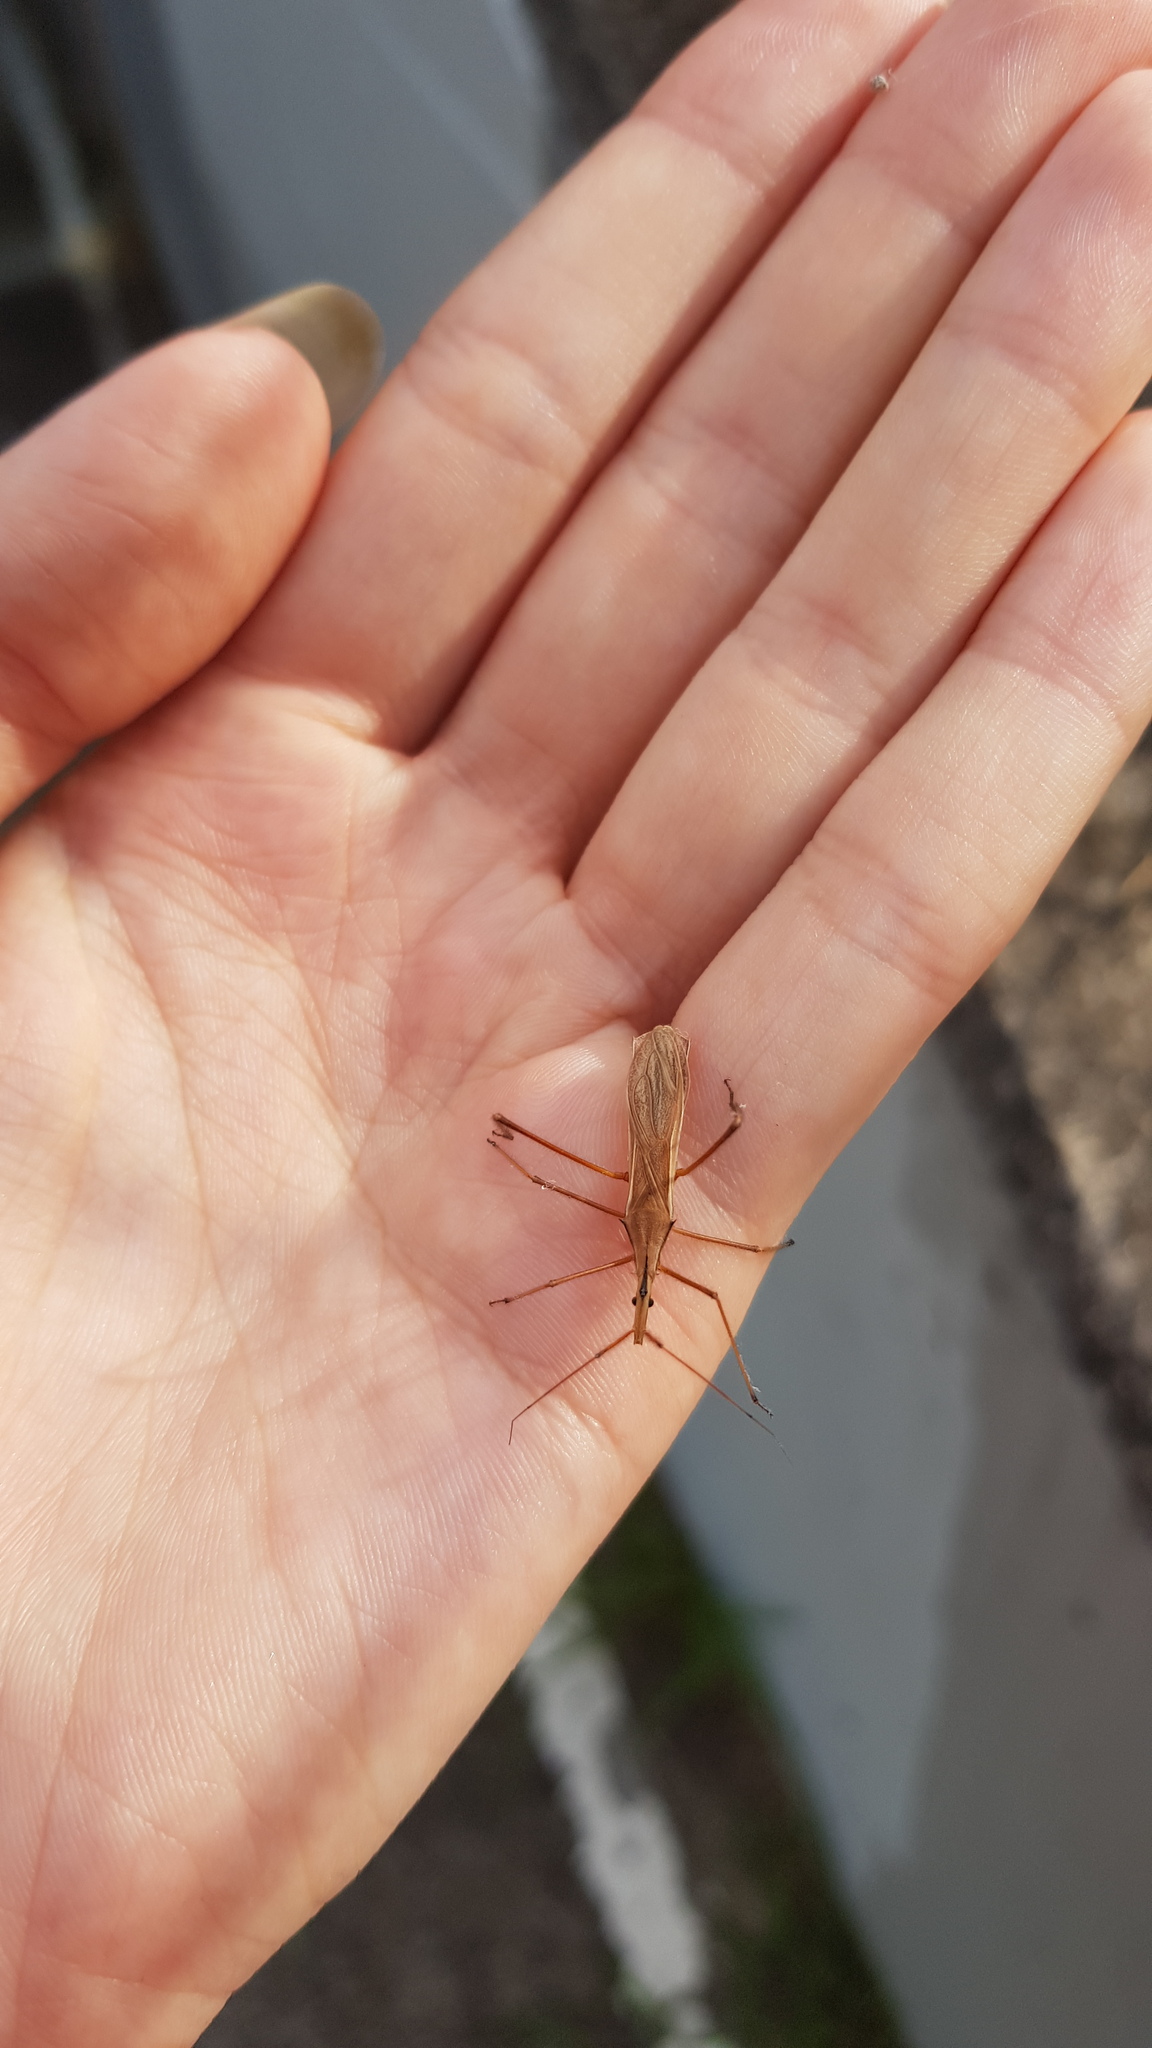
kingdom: Animalia
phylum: Arthropoda
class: Insecta
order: Hemiptera
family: Reduviidae
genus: Thodelmus
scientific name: Thodelmus impicticornis
